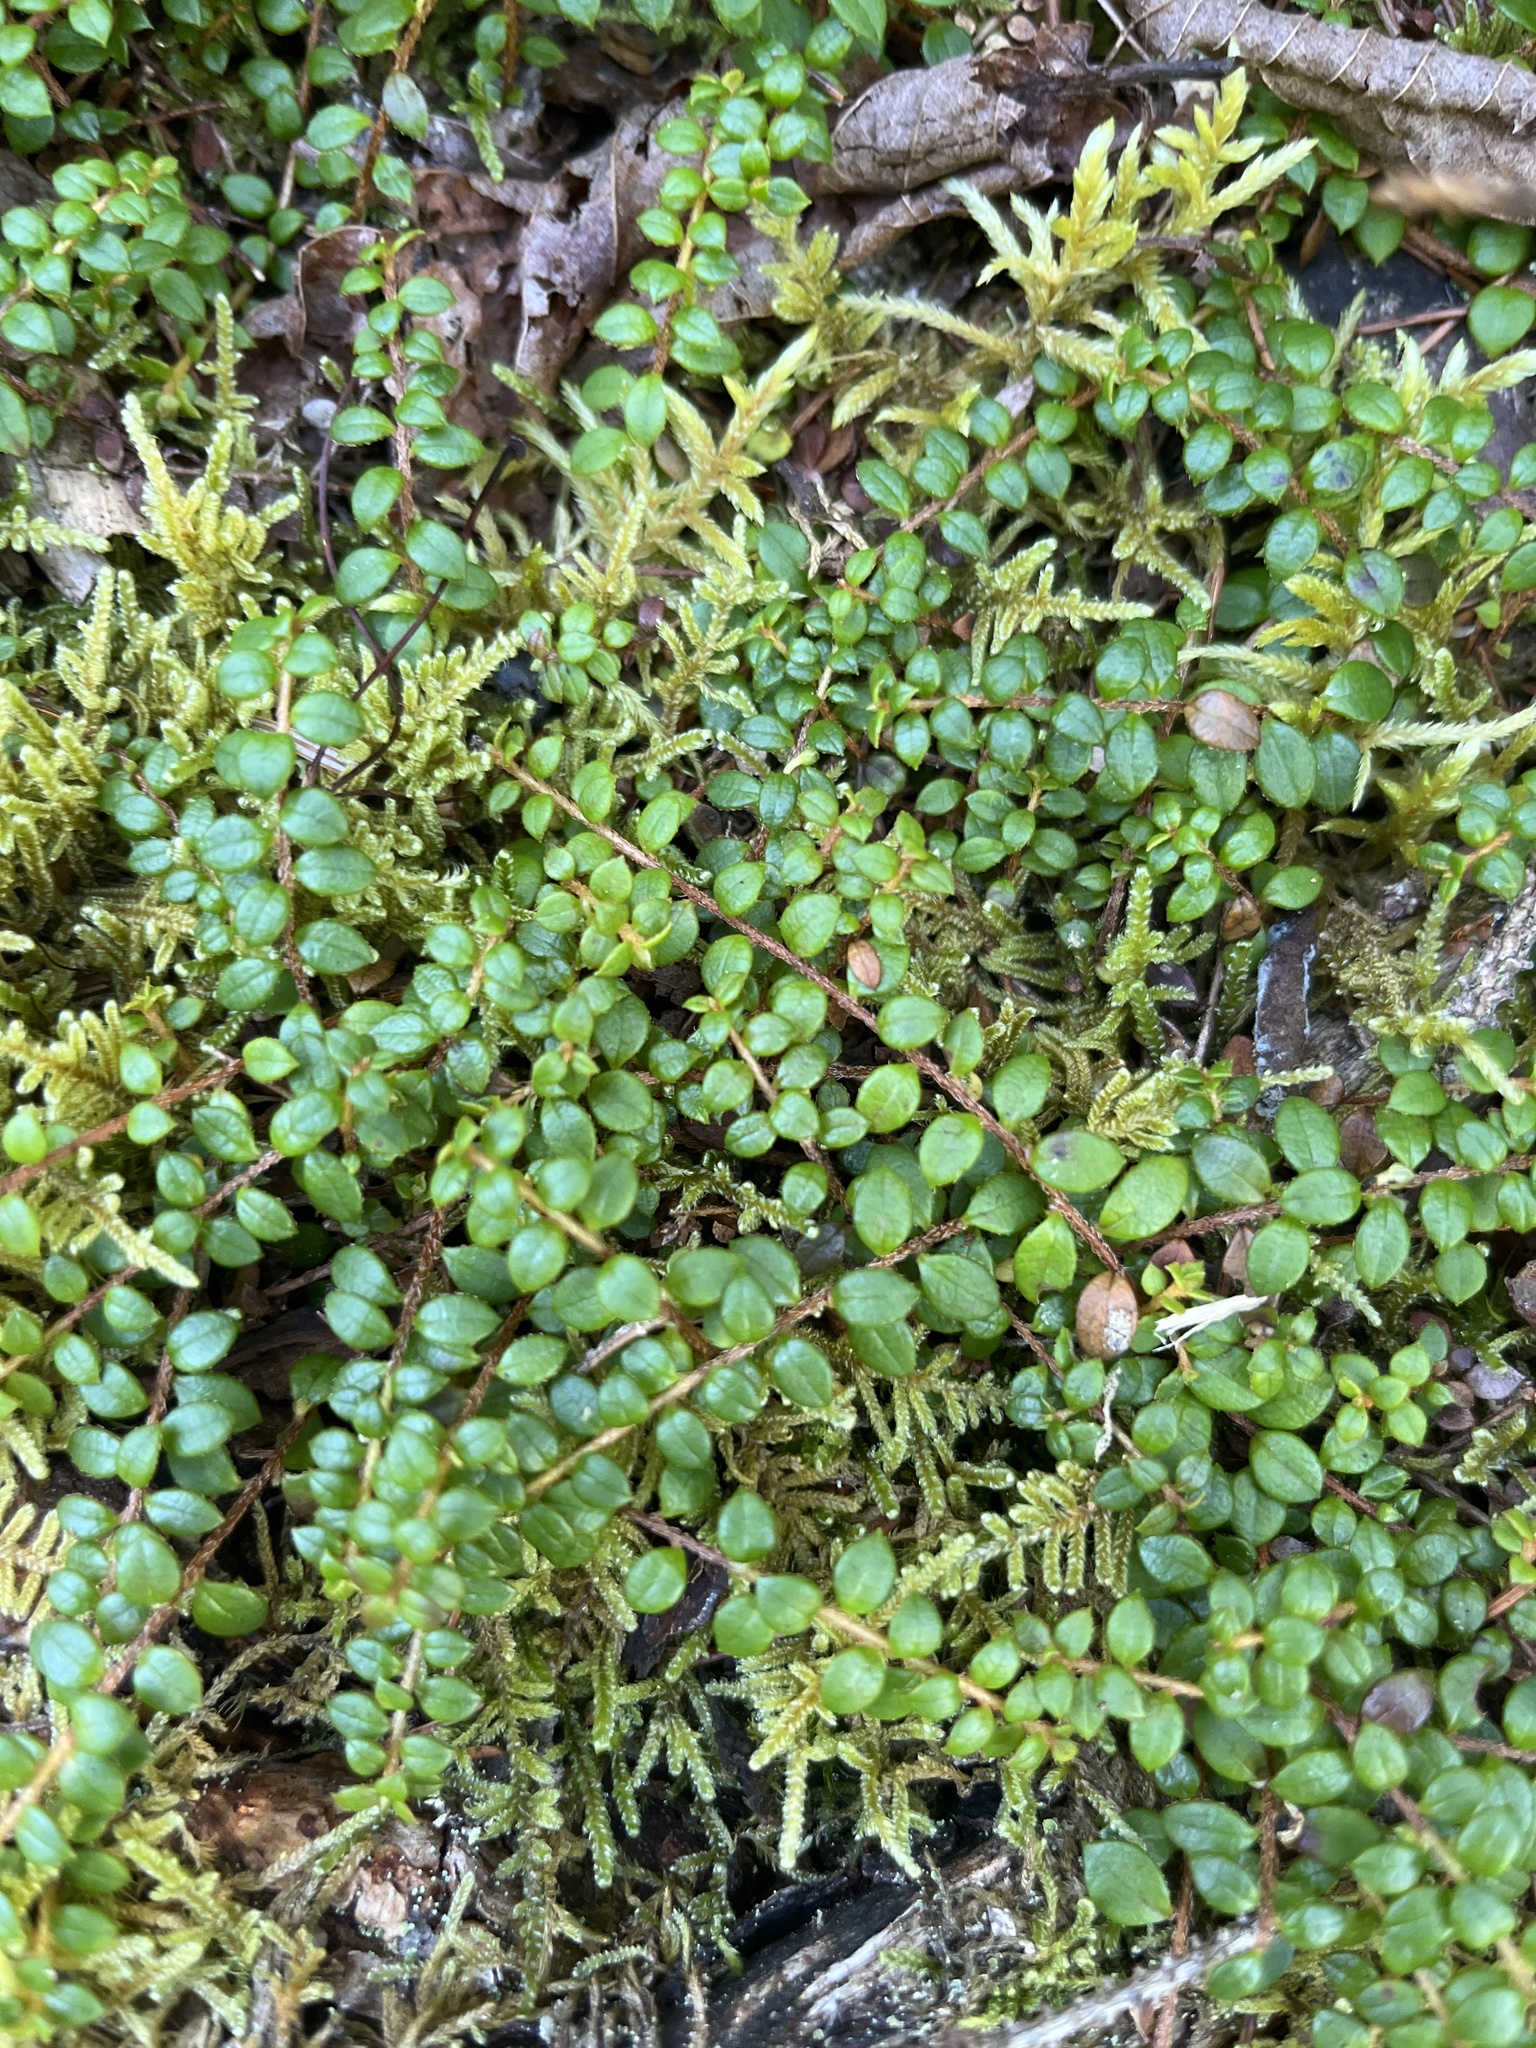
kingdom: Plantae
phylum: Tracheophyta
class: Magnoliopsida
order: Ericales
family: Ericaceae
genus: Gaultheria
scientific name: Gaultheria hispidula
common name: Cancer wintergreen
